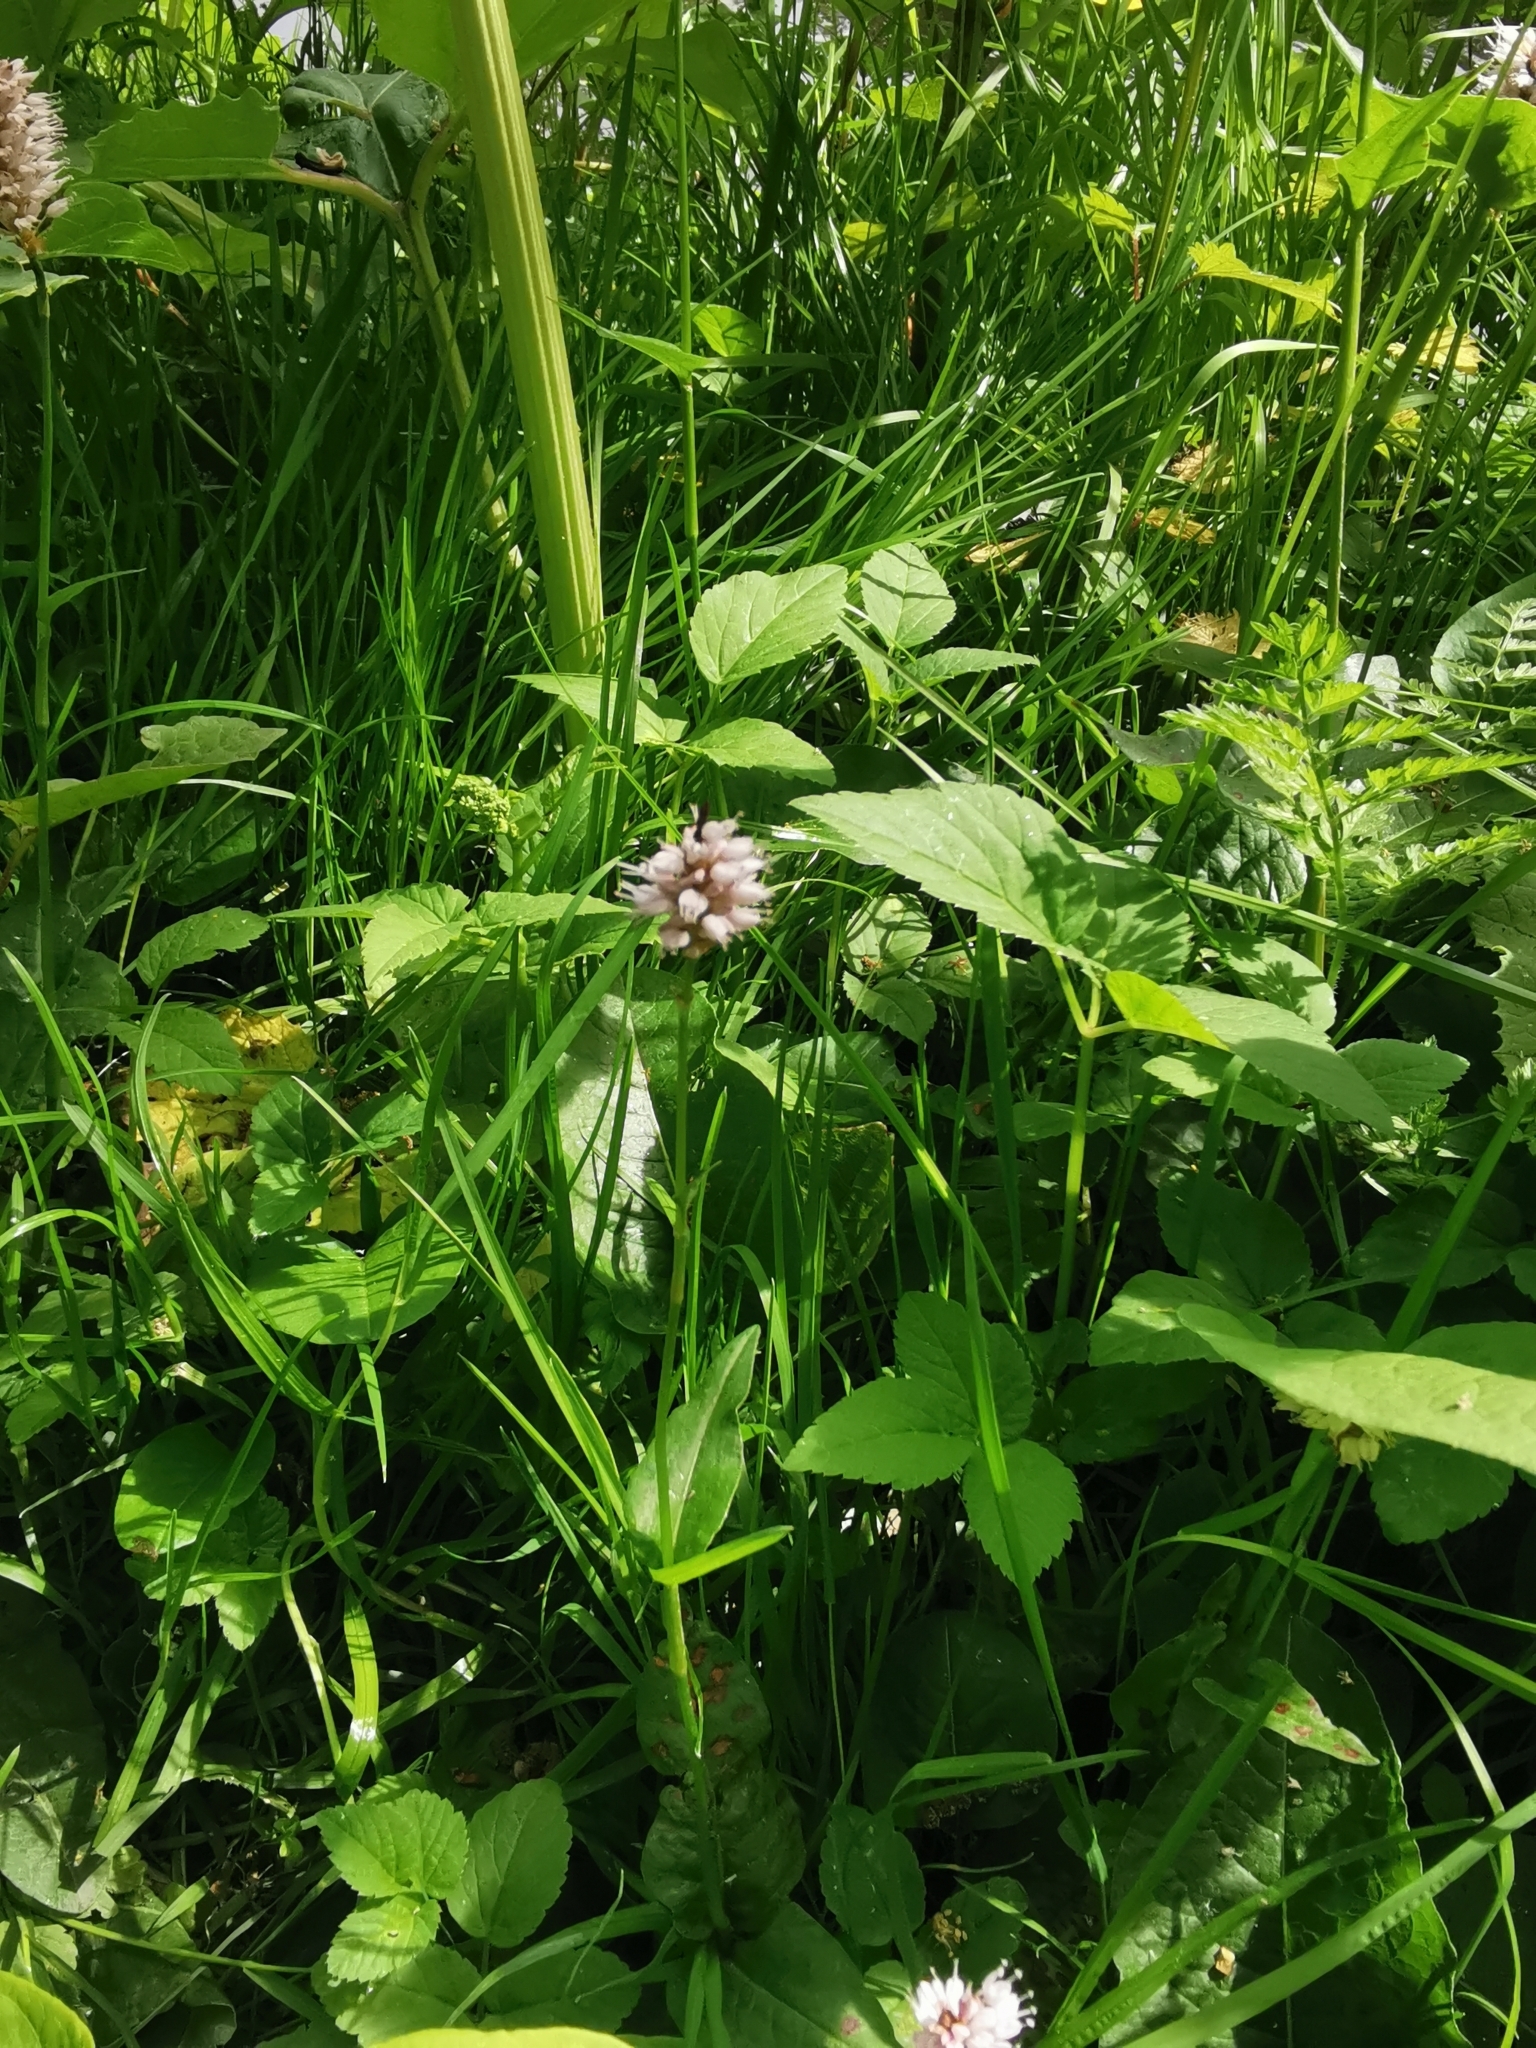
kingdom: Plantae
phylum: Tracheophyta
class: Magnoliopsida
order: Caryophyllales
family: Polygonaceae
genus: Bistorta
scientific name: Bistorta officinalis
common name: Common bistort
